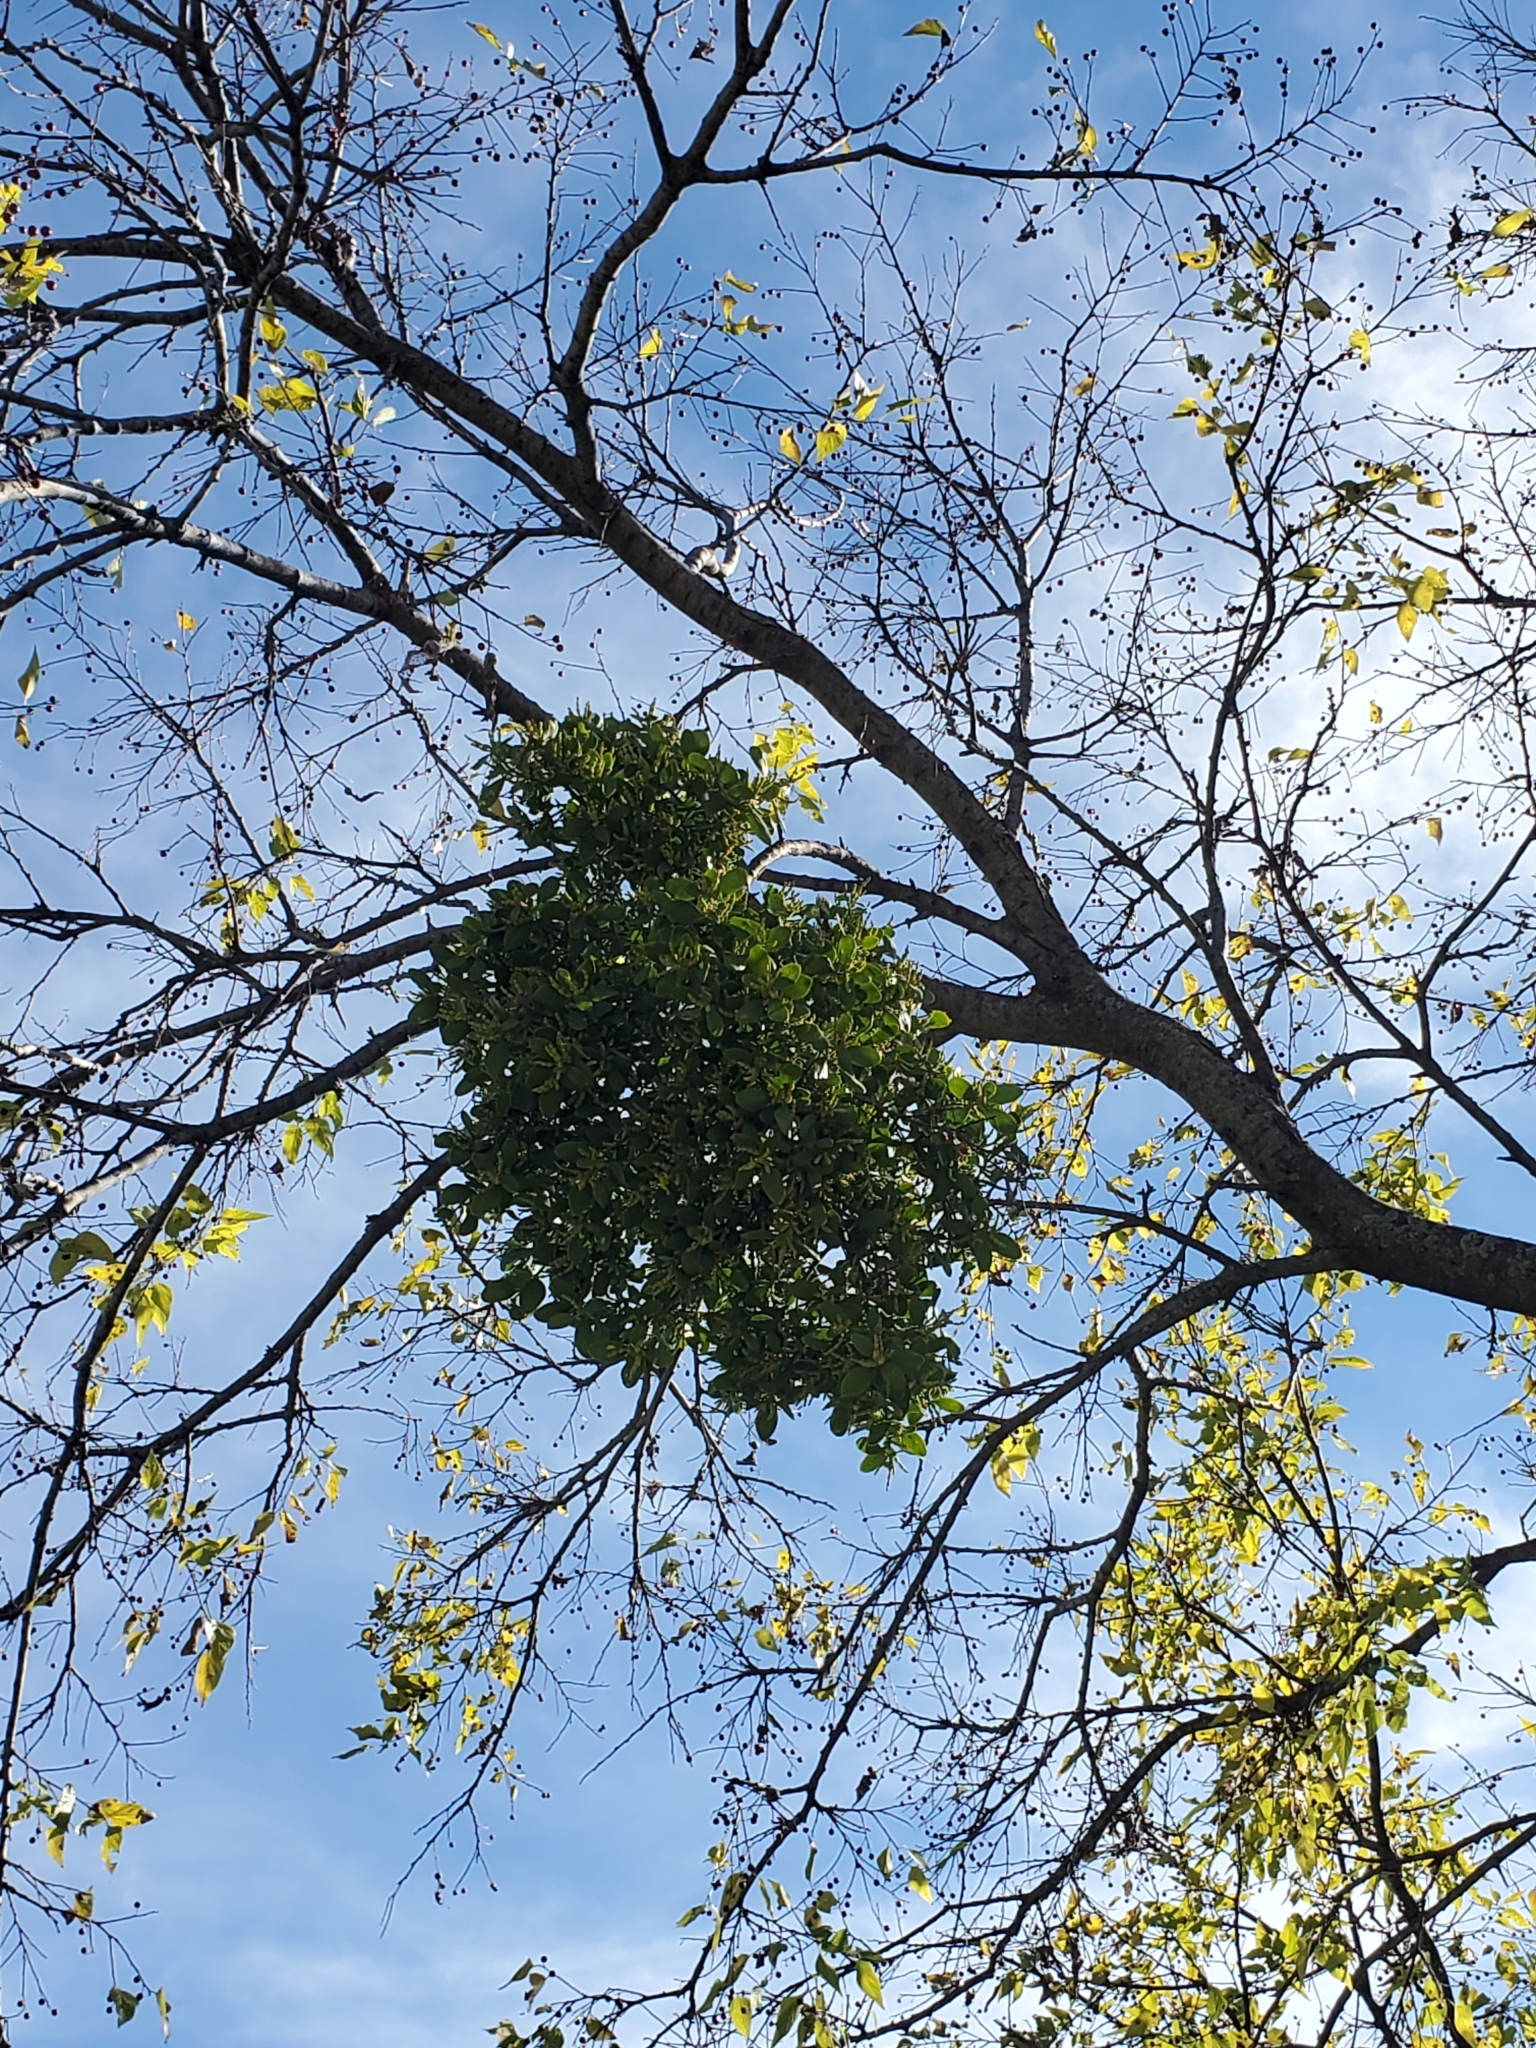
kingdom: Plantae
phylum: Tracheophyta
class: Magnoliopsida
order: Santalales
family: Viscaceae
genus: Phoradendron
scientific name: Phoradendron leucarpum
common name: Pacific mistletoe
